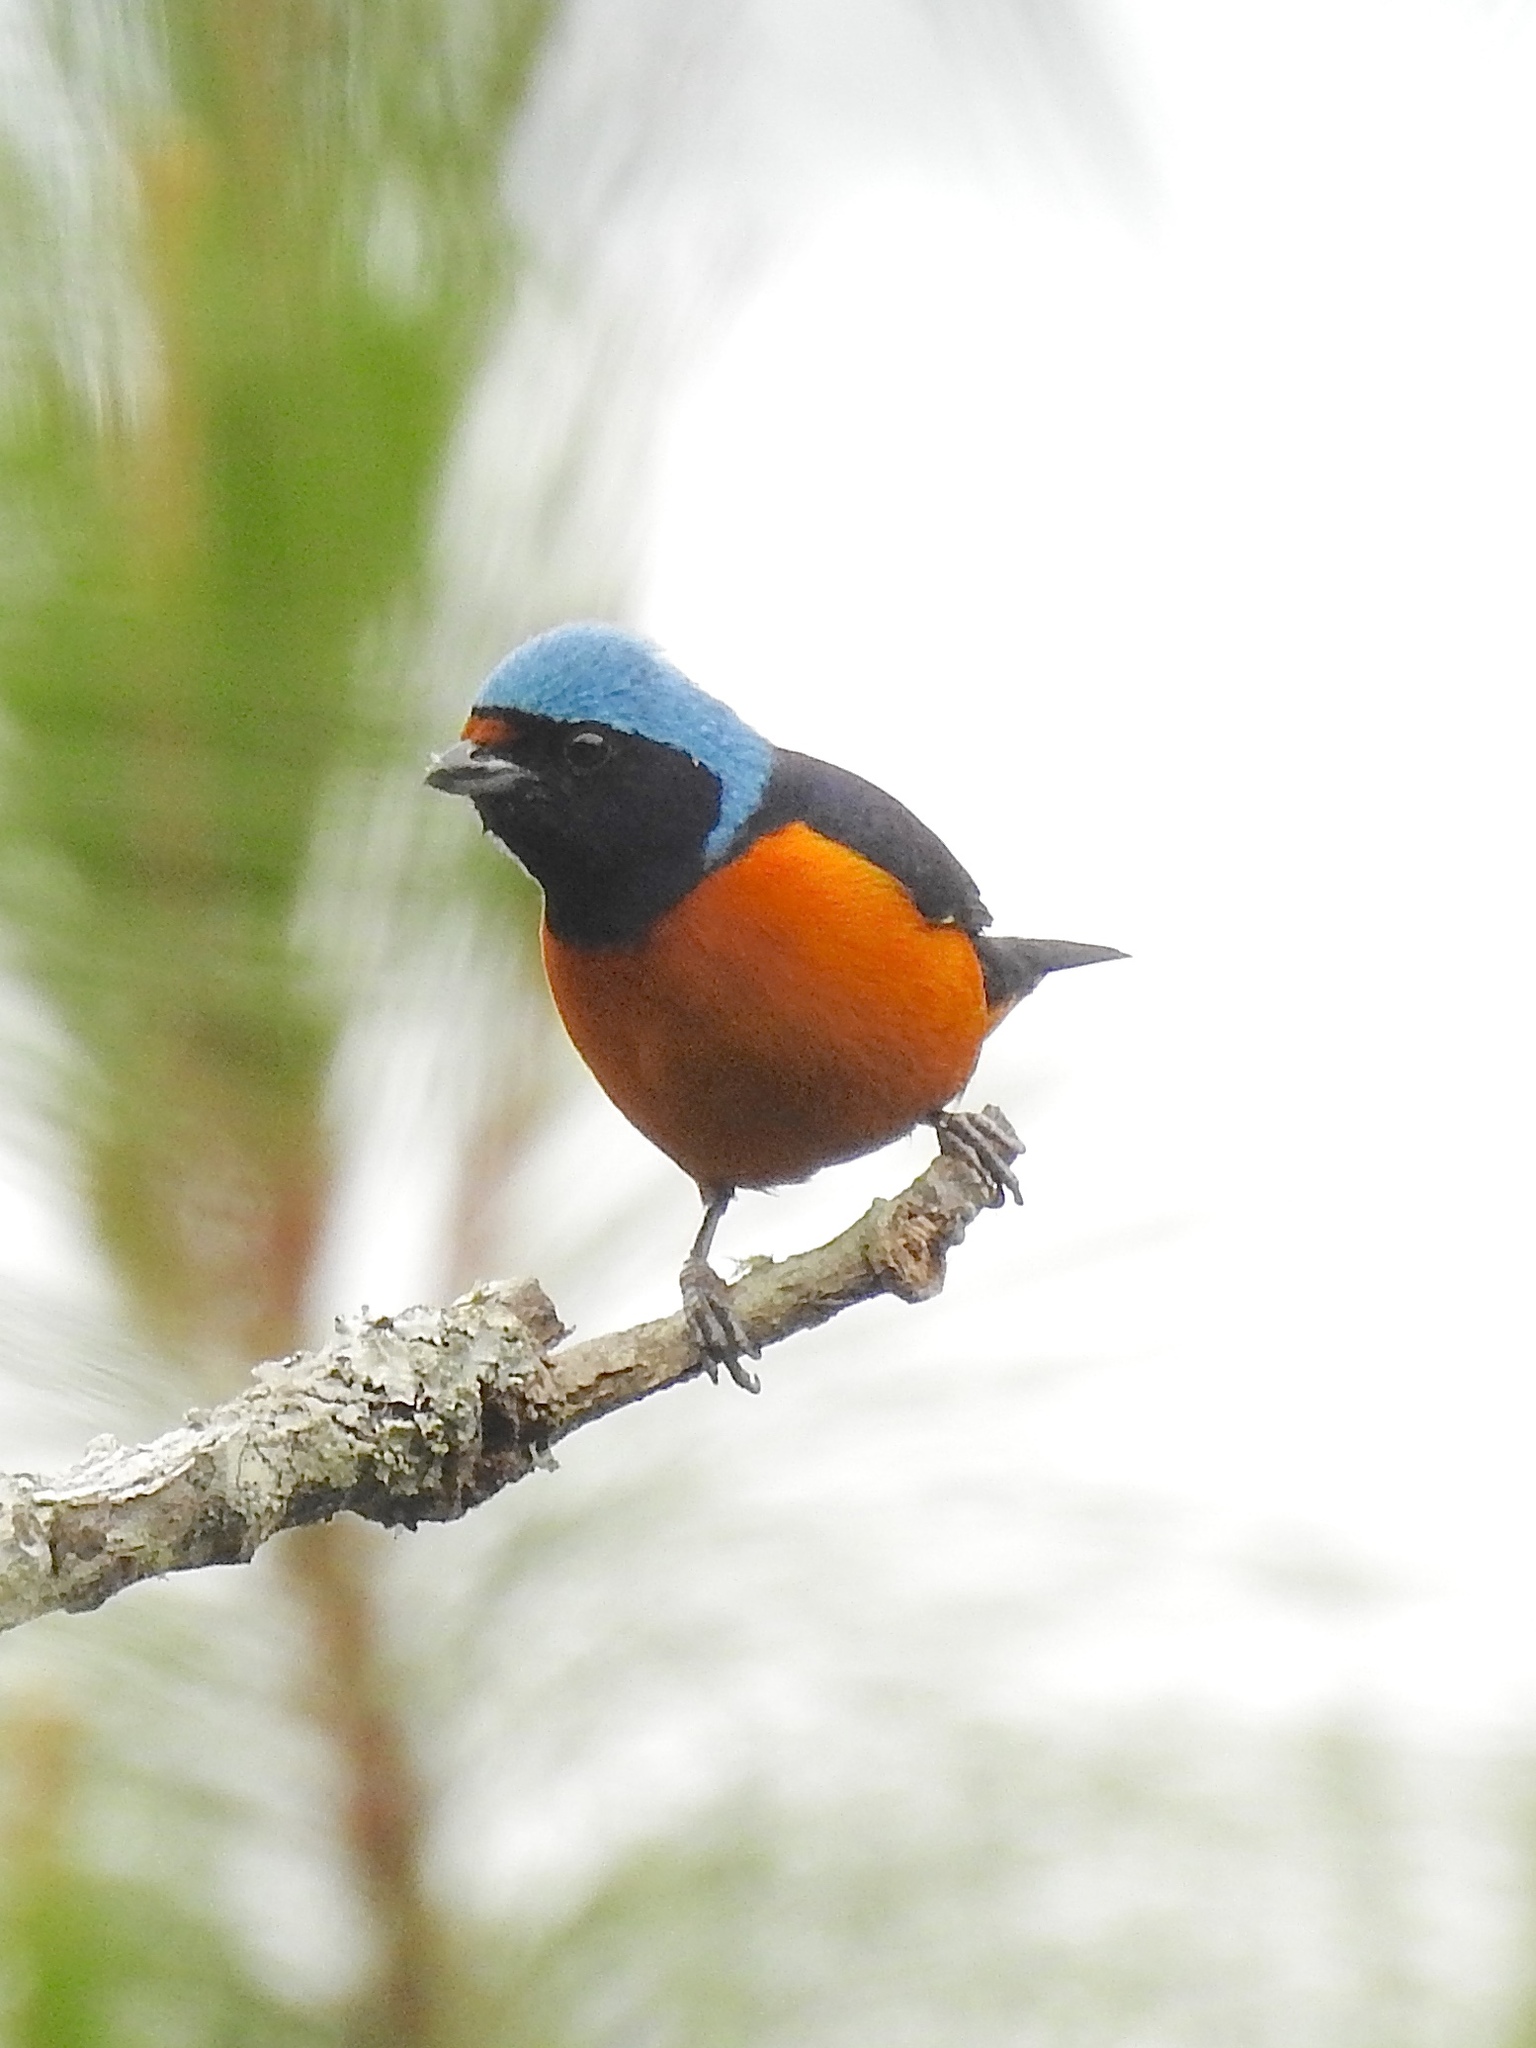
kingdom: Animalia
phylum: Chordata
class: Aves
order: Passeriformes
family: Fringillidae
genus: Euphonia
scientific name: Euphonia elegantissima
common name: Elegant euphonia
